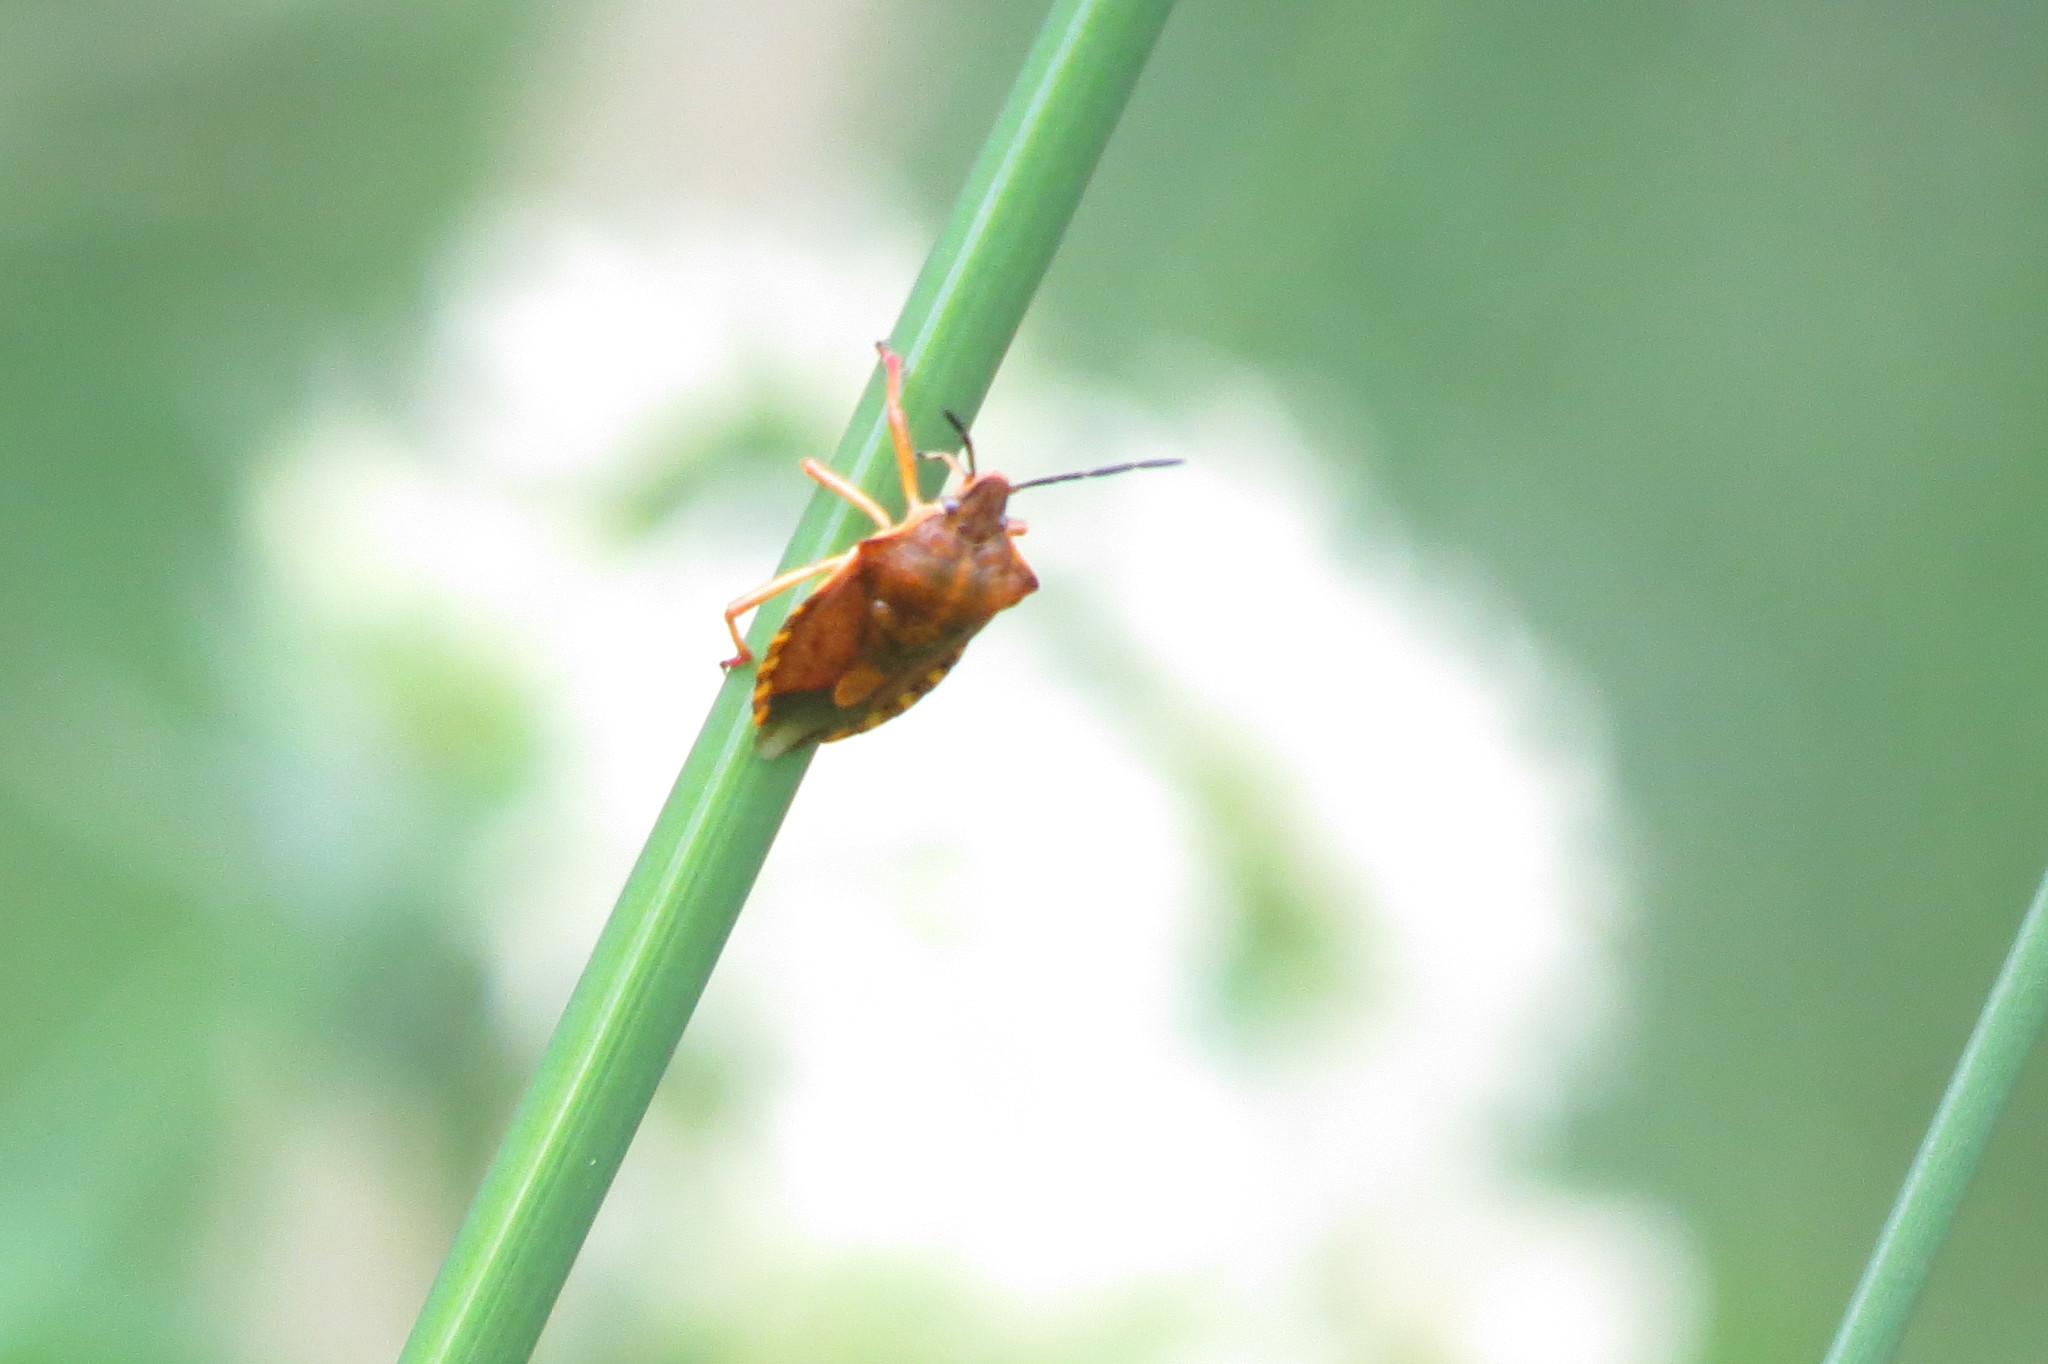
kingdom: Animalia
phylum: Arthropoda
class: Insecta
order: Hemiptera
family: Pentatomidae
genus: Carpocoris
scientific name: Carpocoris purpureipennis
